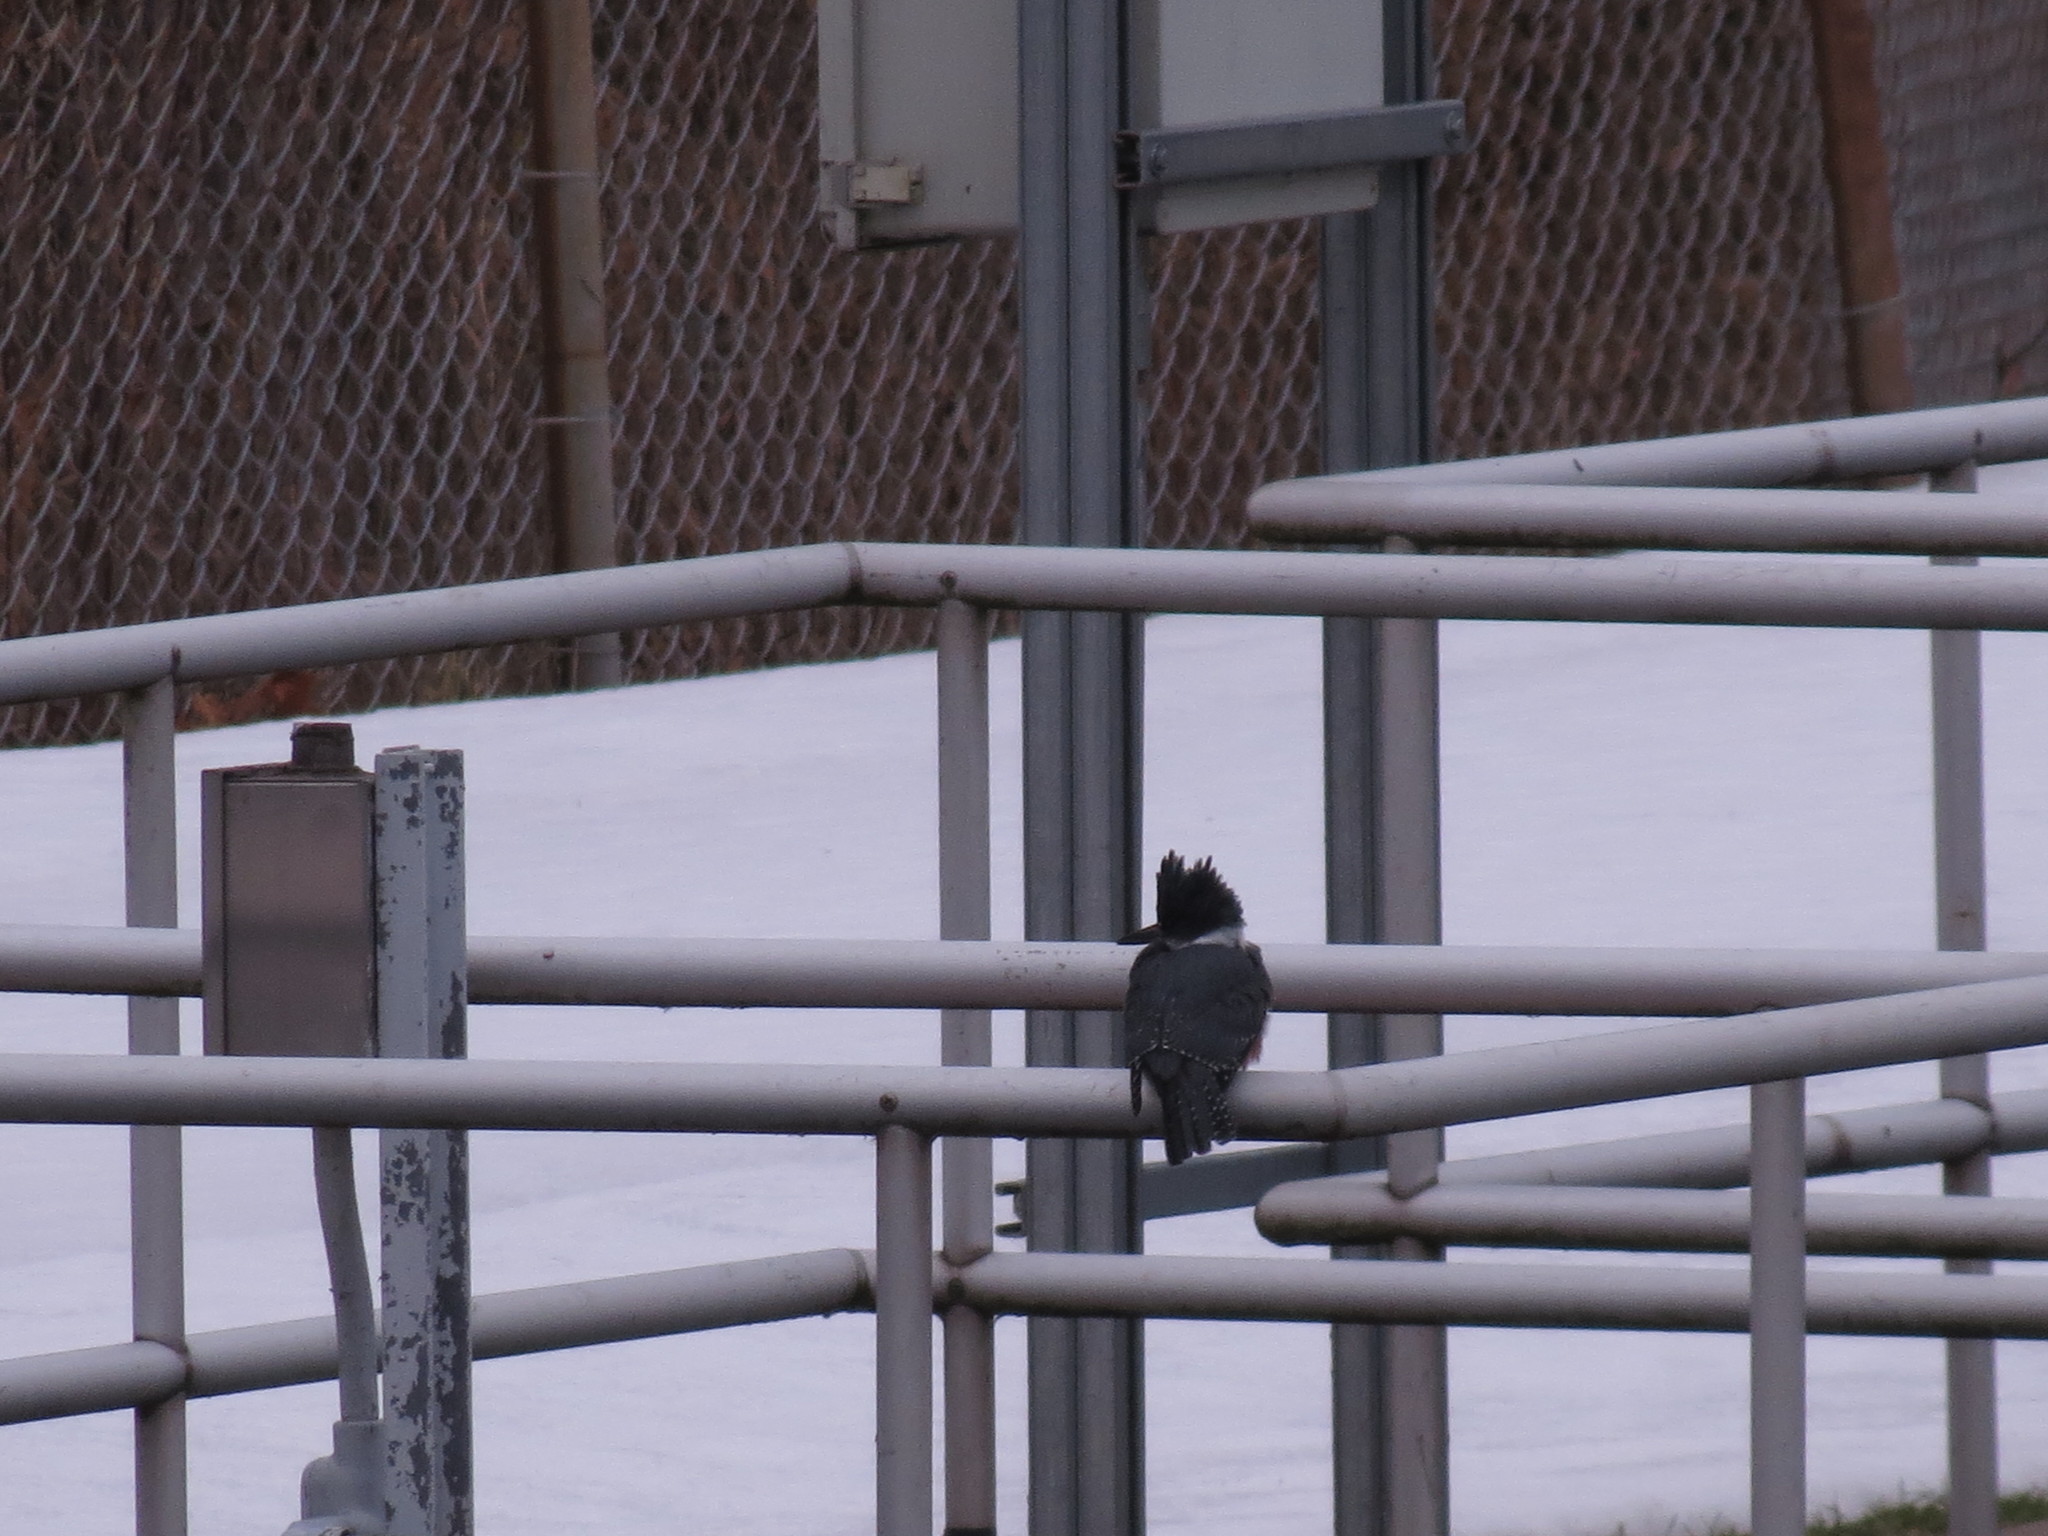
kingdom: Animalia
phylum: Chordata
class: Aves
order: Coraciiformes
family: Alcedinidae
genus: Megaceryle
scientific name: Megaceryle alcyon
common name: Belted kingfisher
